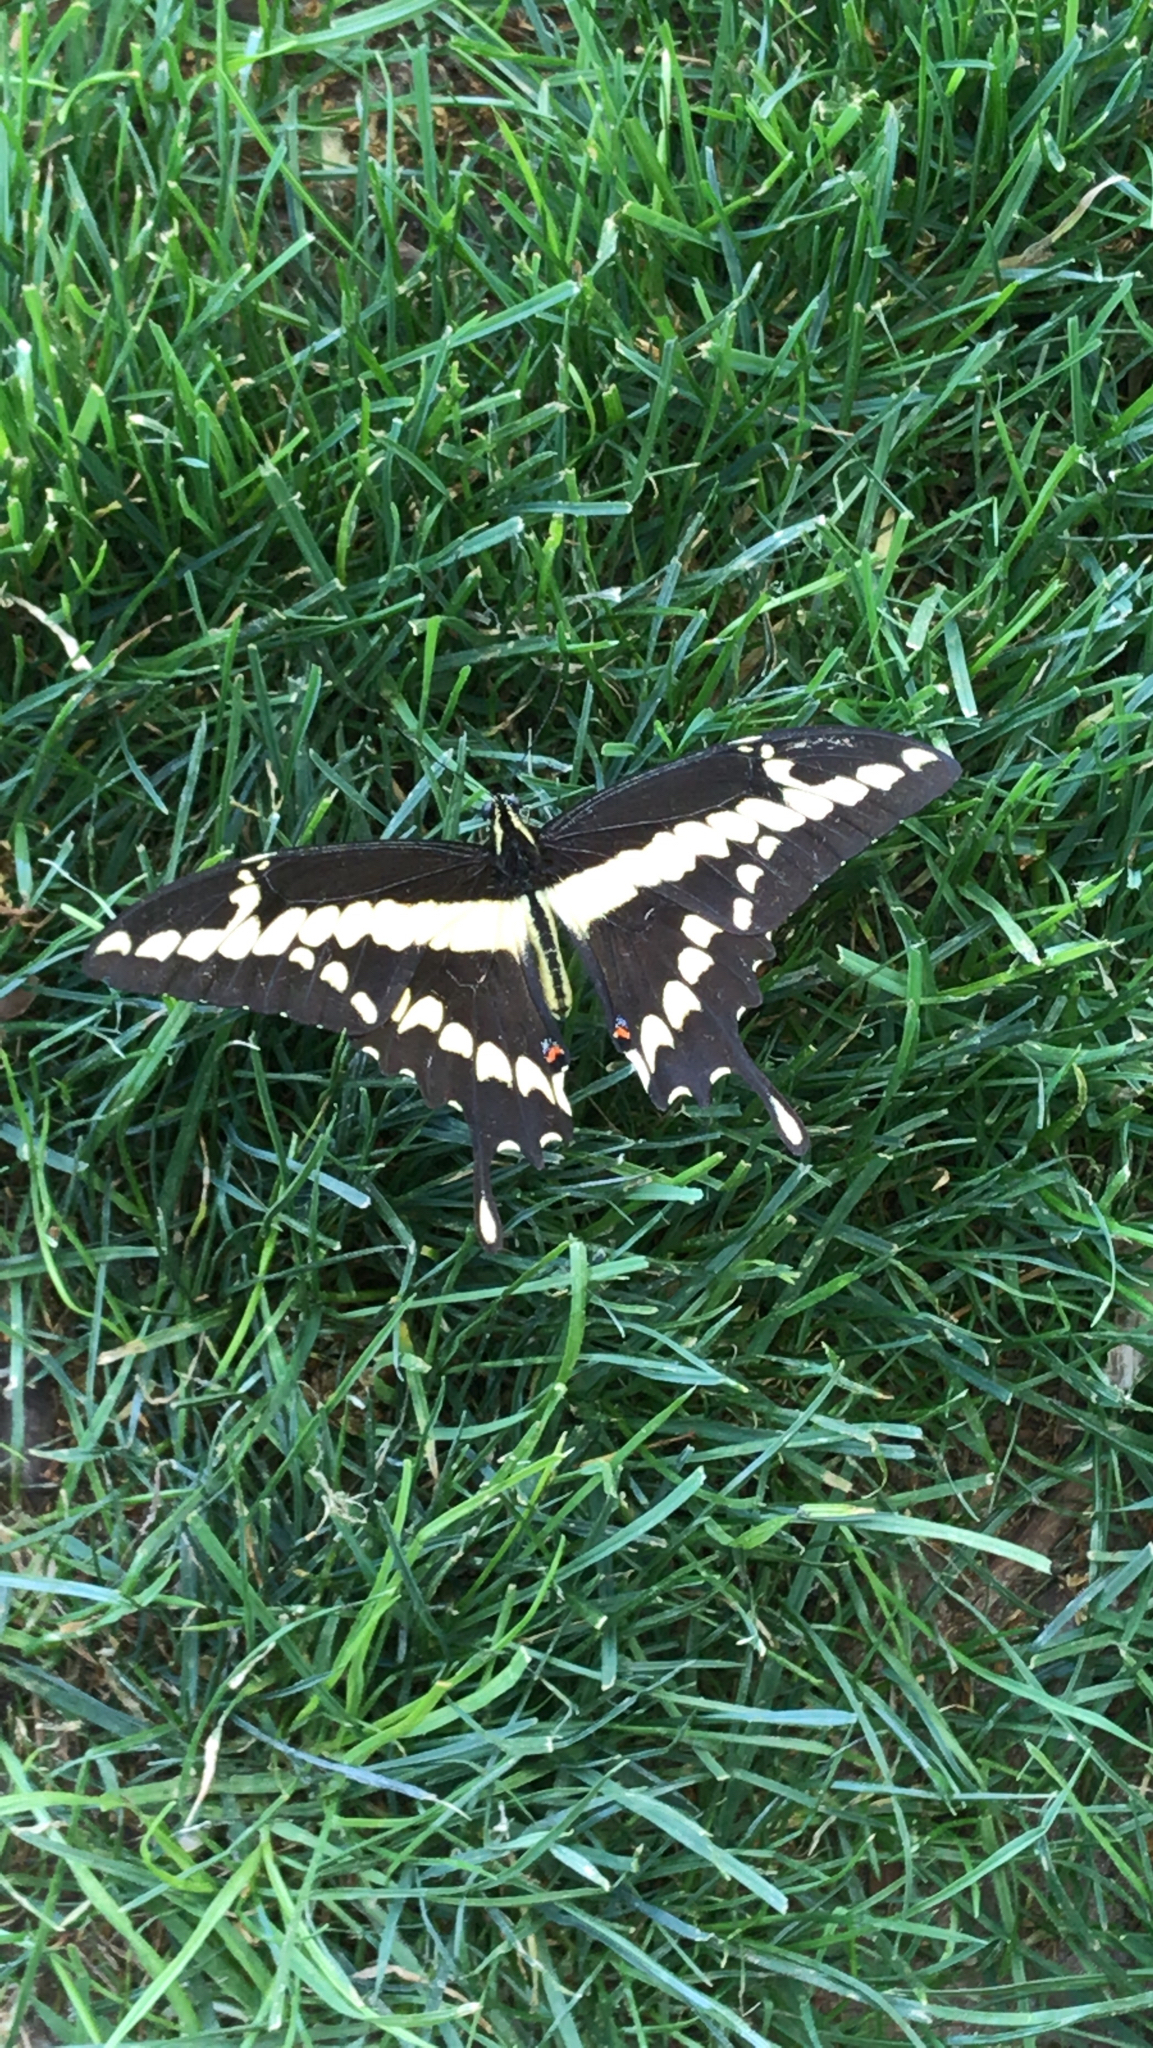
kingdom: Animalia
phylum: Arthropoda
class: Insecta
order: Lepidoptera
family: Papilionidae
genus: Papilio
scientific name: Papilio rumiko
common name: Western giant swallowtail
